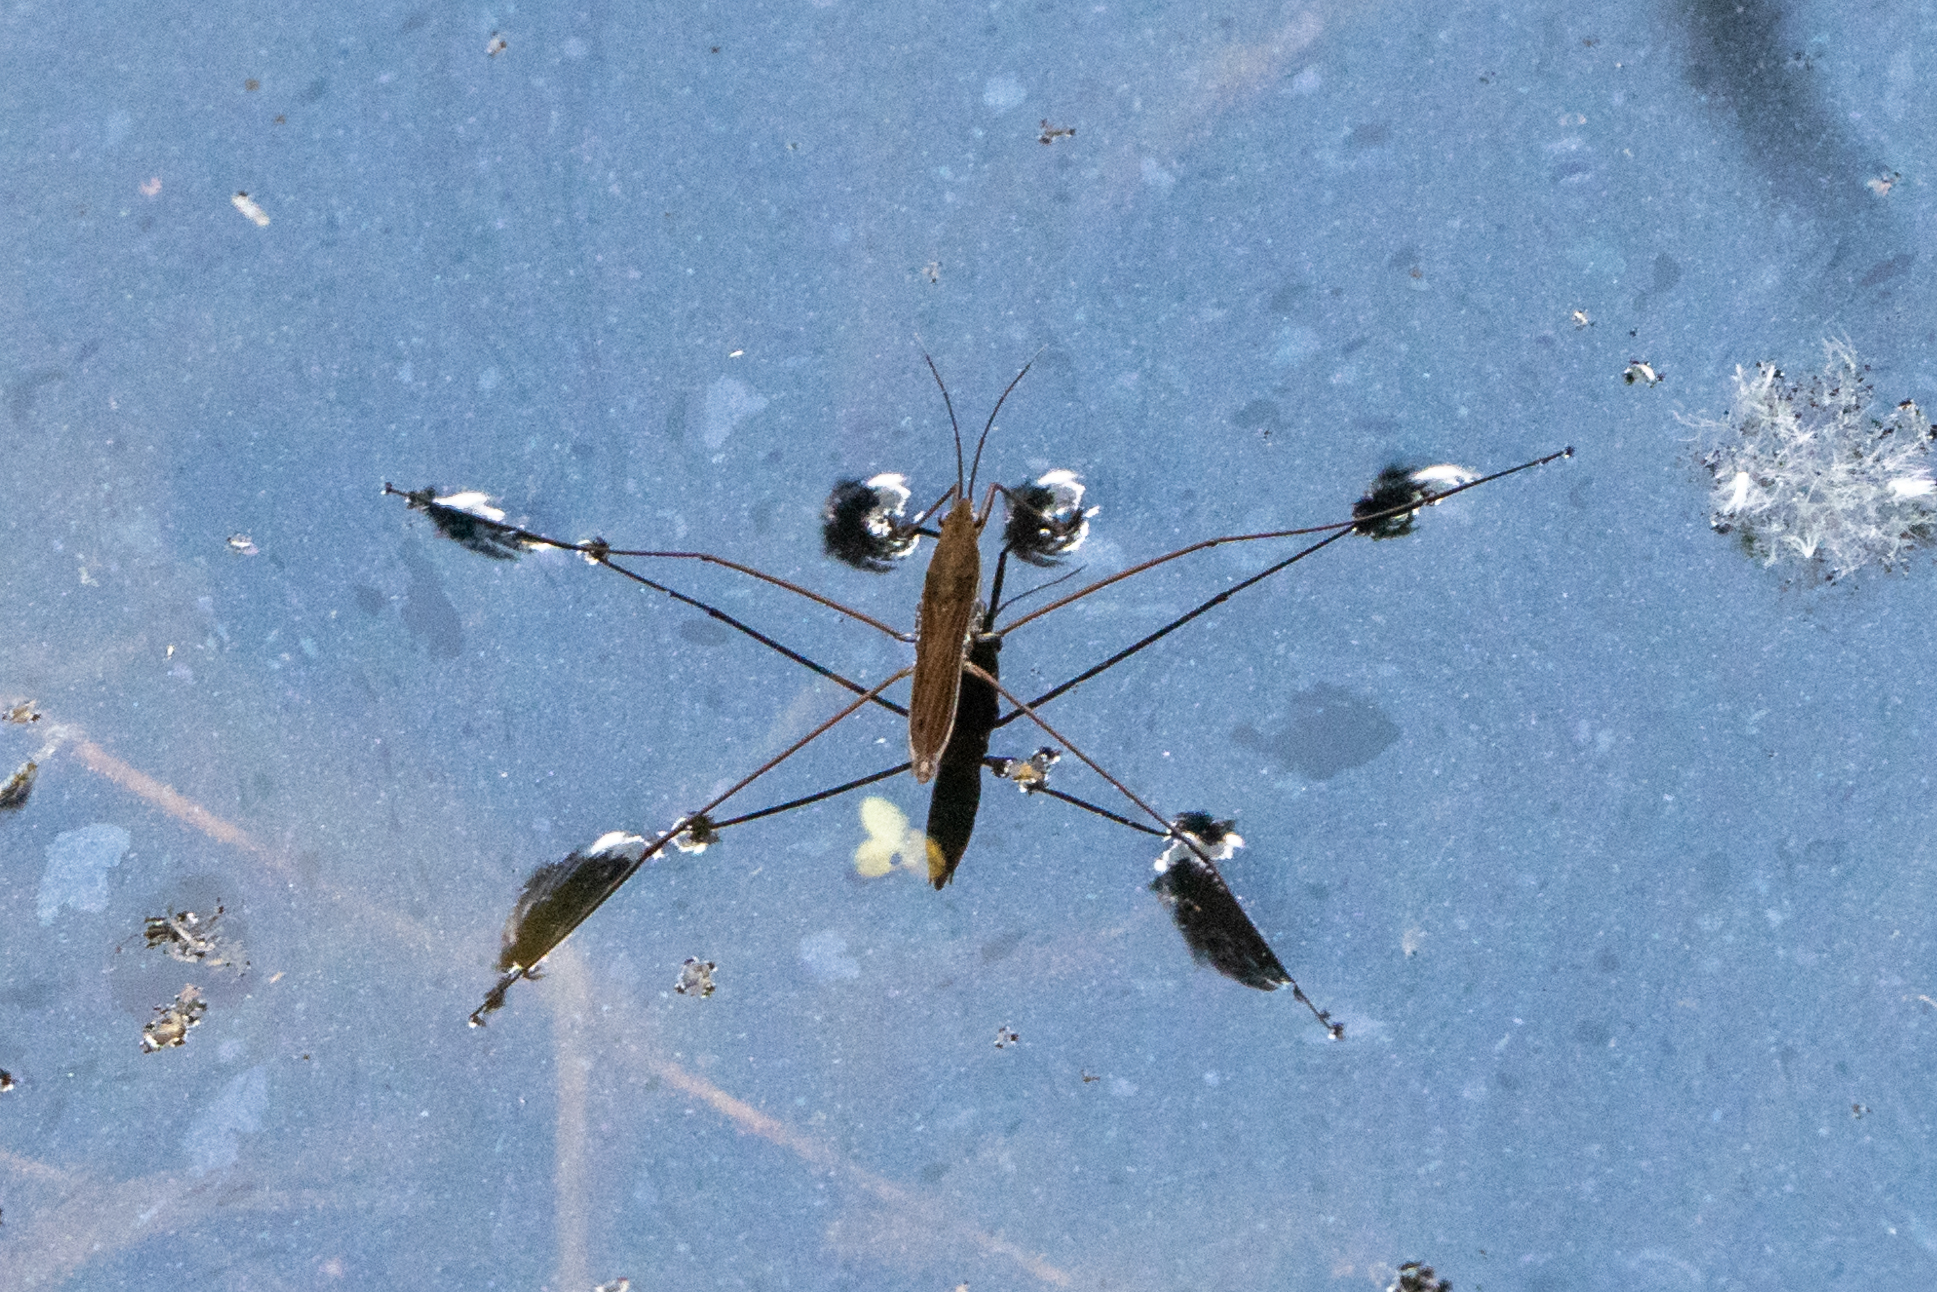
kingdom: Animalia
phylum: Arthropoda
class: Insecta
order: Hemiptera
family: Gerridae
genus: Limnoporus
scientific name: Limnoporus notabilis
